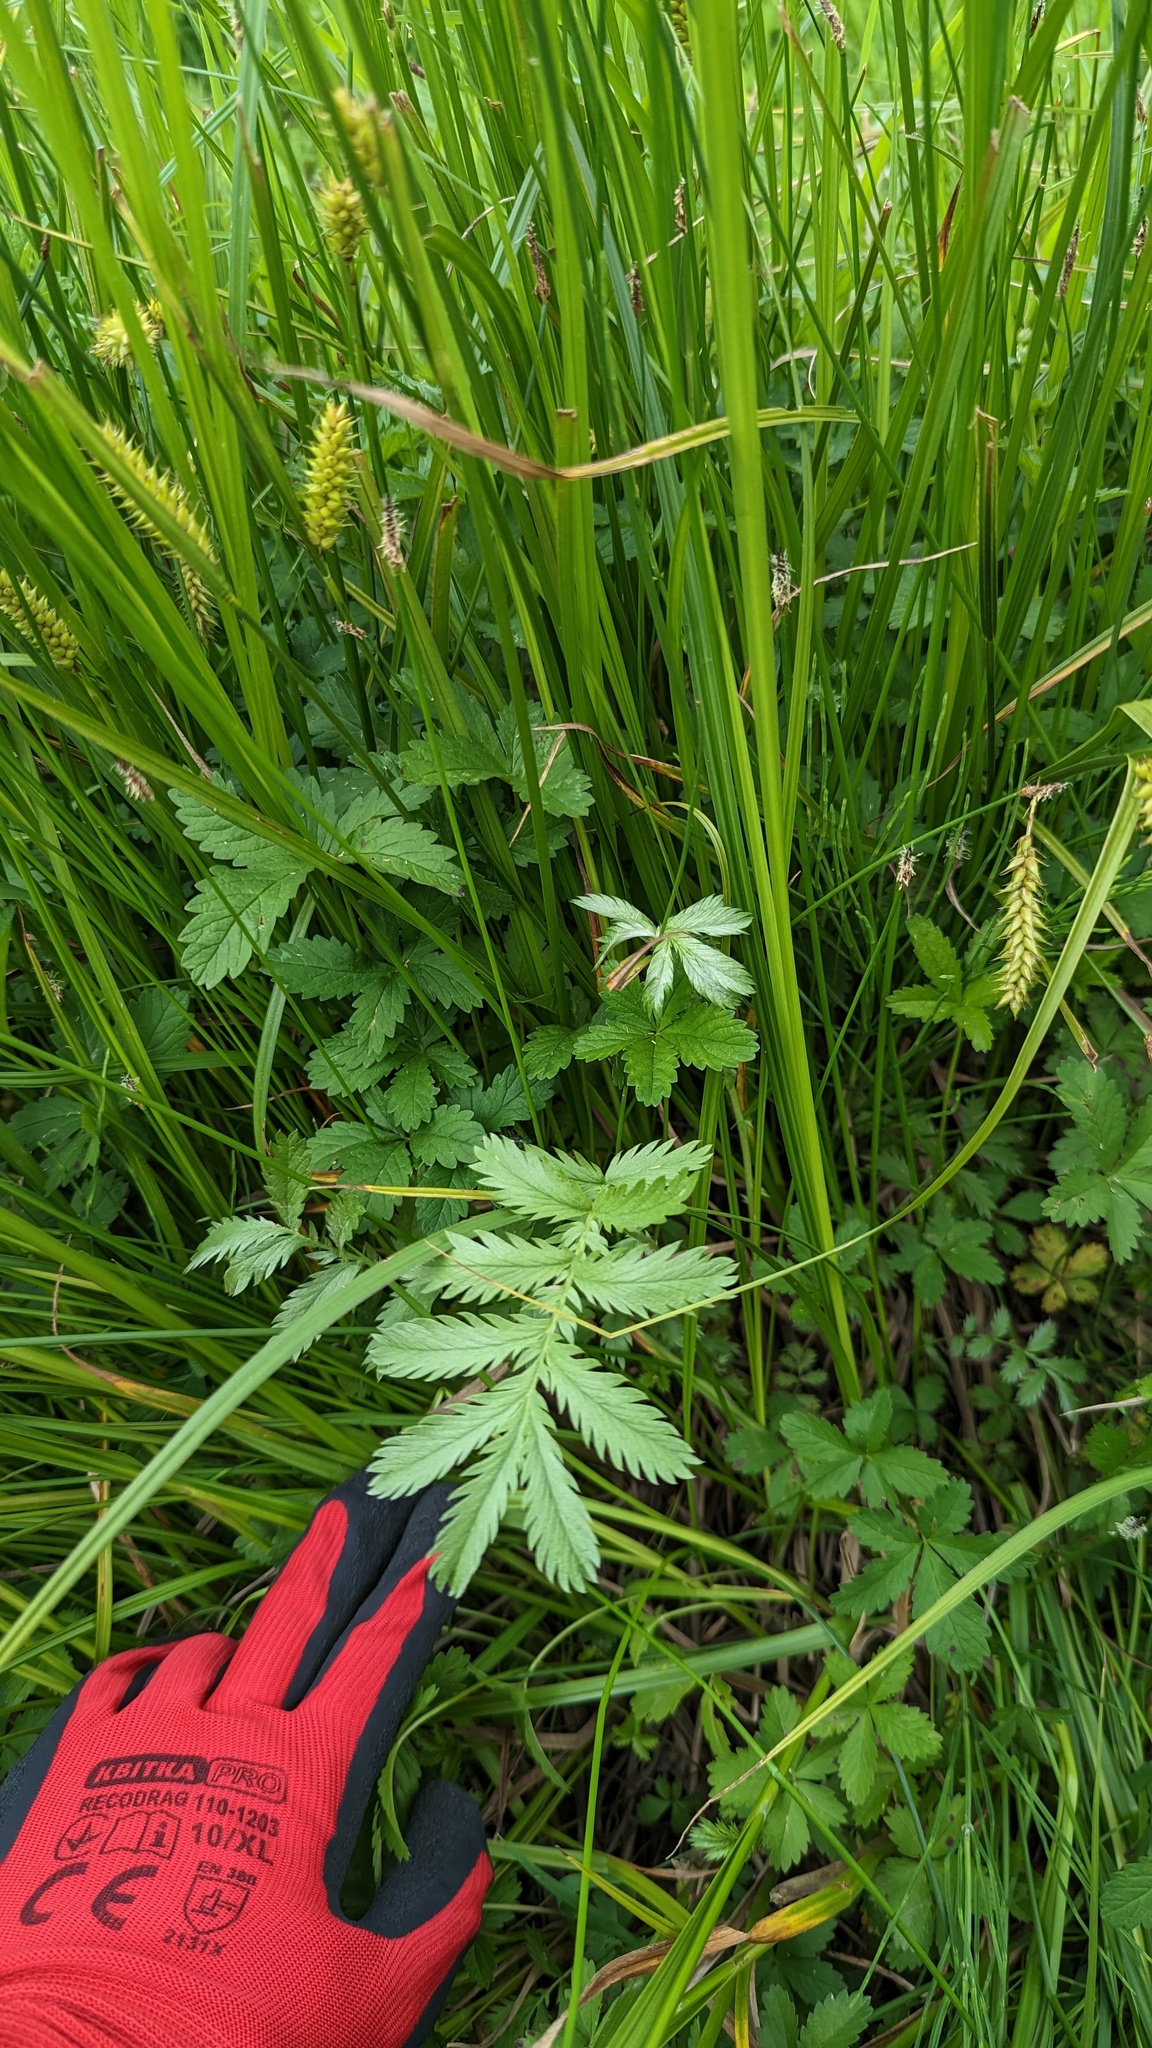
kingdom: Plantae
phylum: Tracheophyta
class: Magnoliopsida
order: Rosales
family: Rosaceae
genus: Argentina
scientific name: Argentina anserina
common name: Common silverweed
